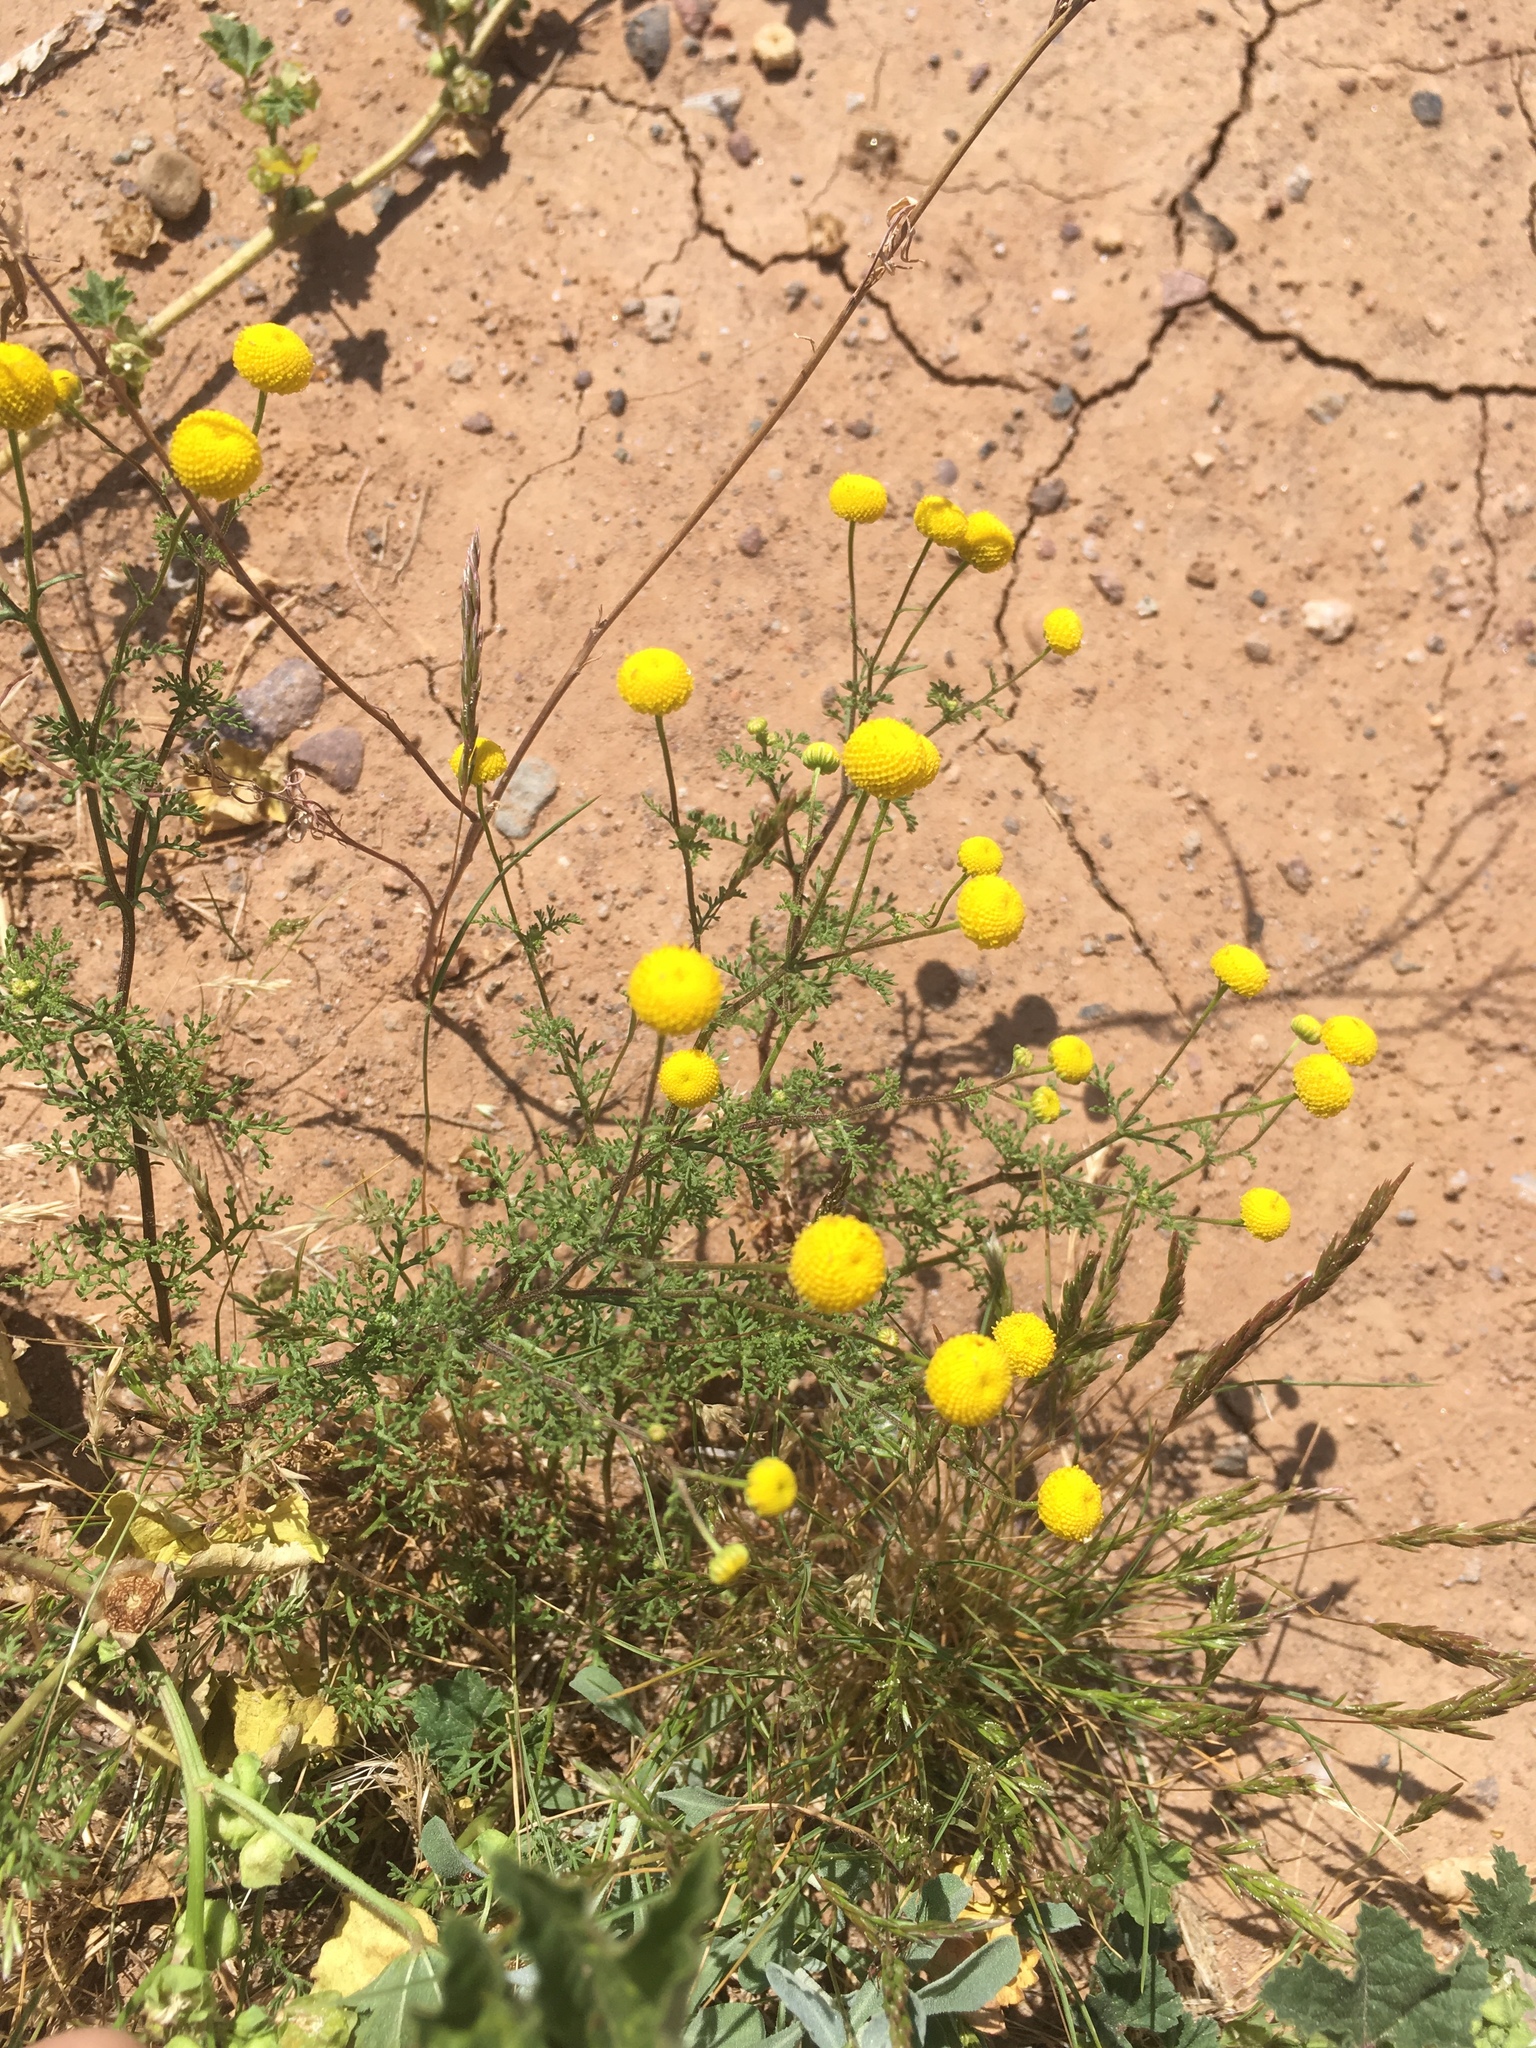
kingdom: Plantae
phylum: Tracheophyta
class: Magnoliopsida
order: Asterales
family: Asteraceae
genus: Oncosiphon
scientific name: Oncosiphon pilulifer
